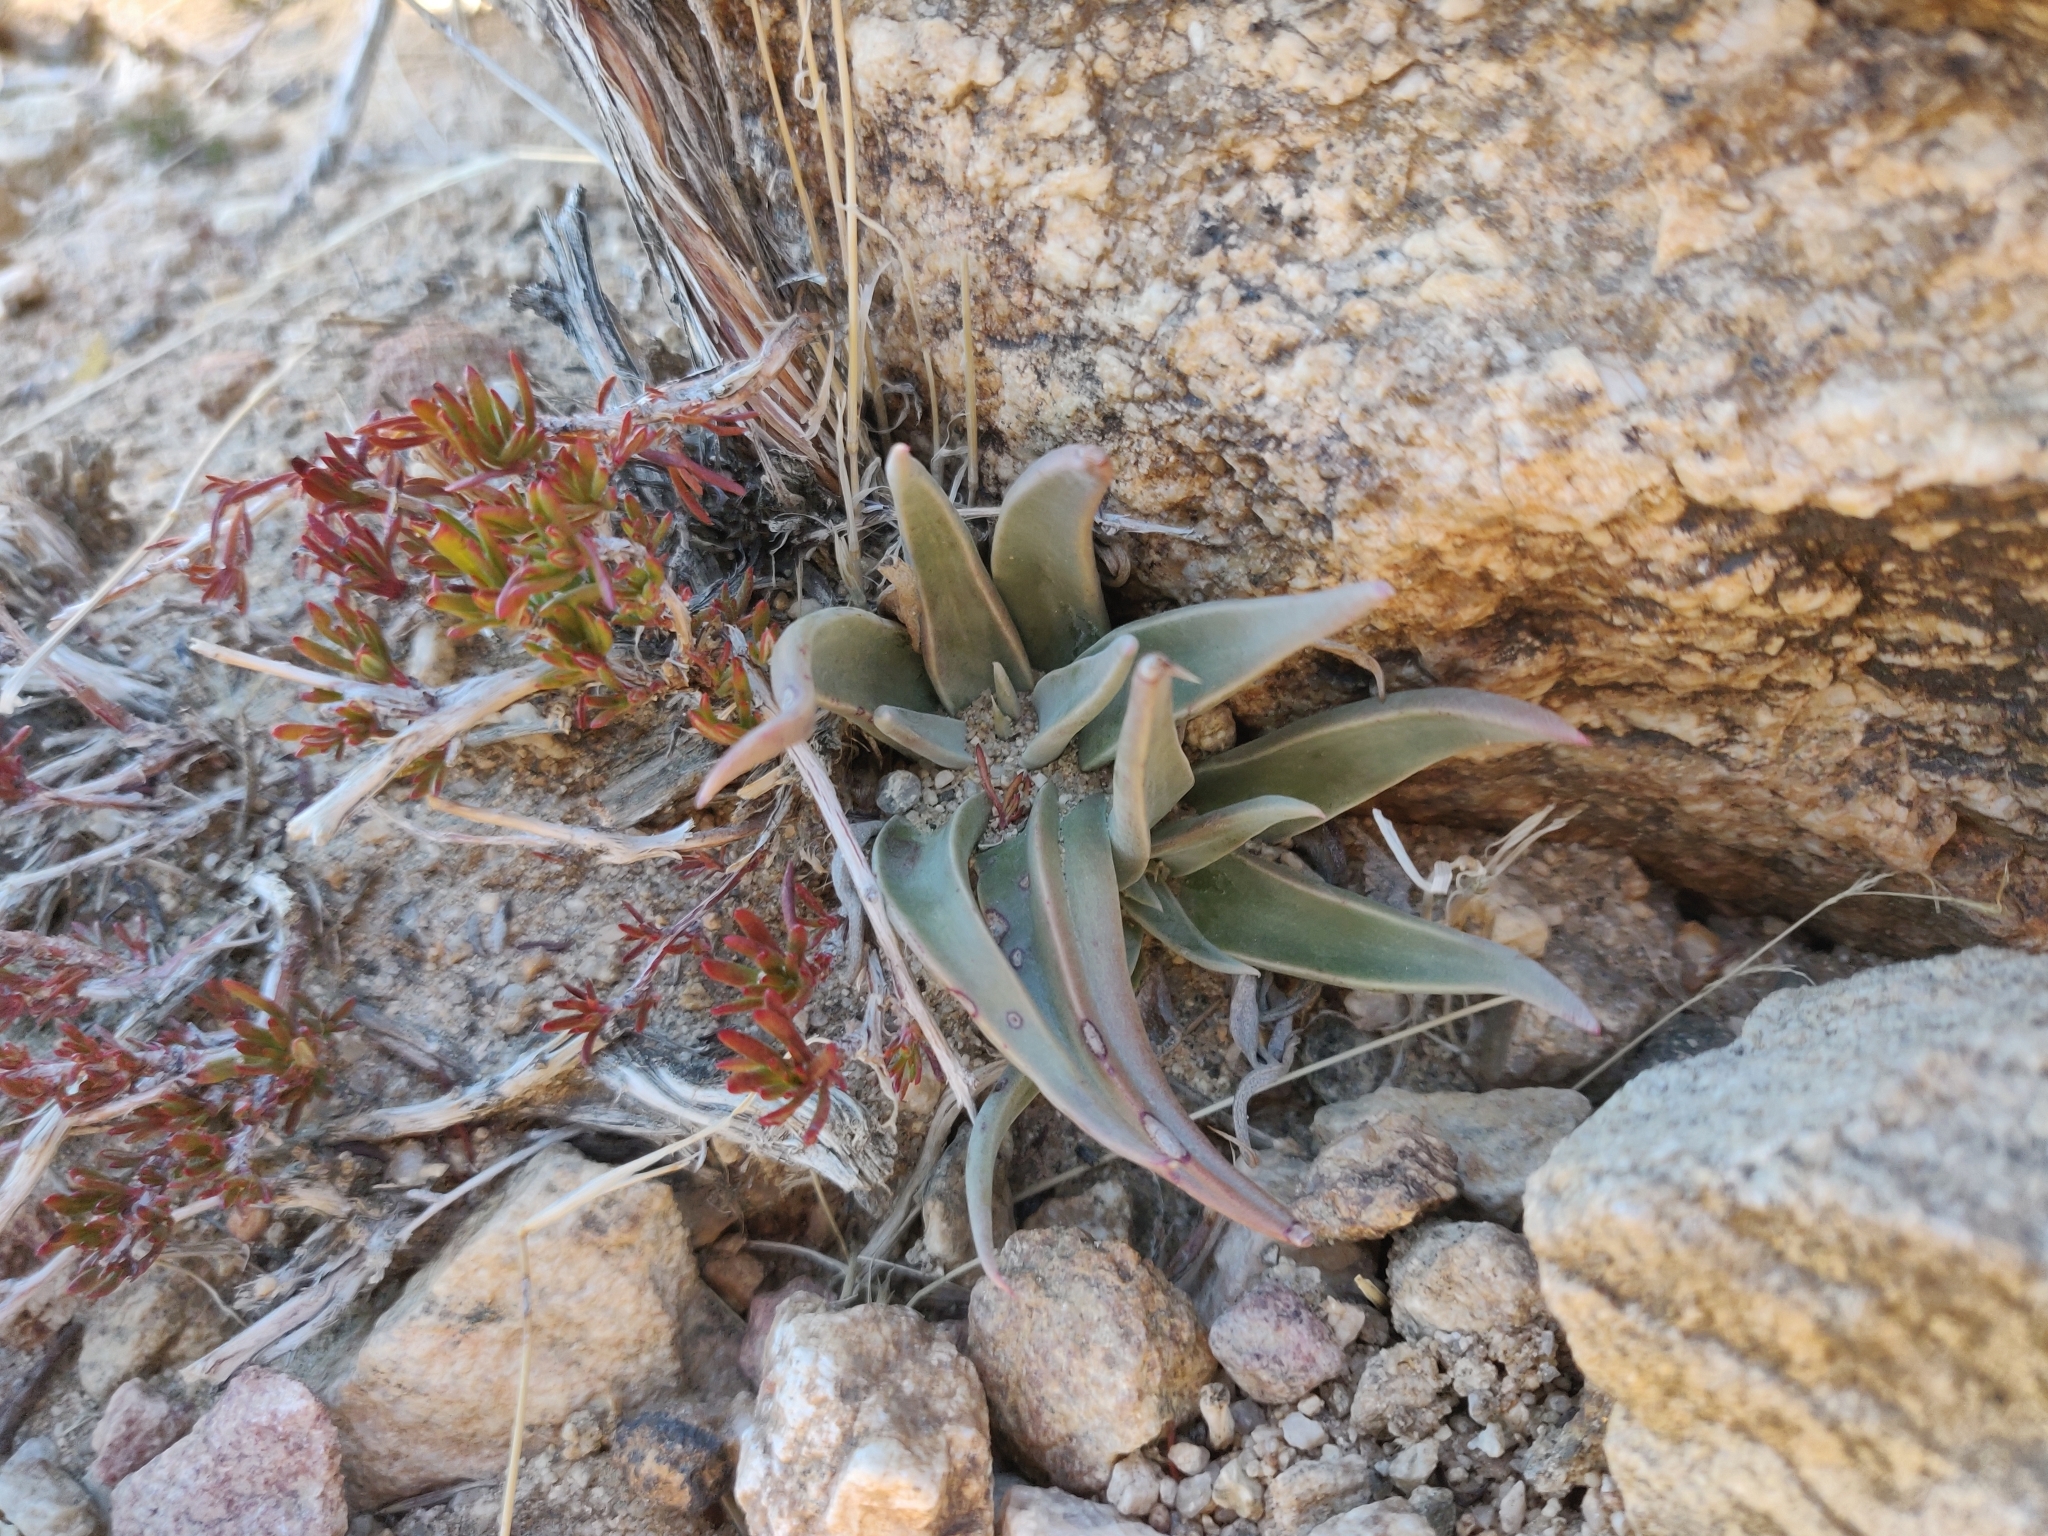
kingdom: Plantae
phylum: Tracheophyta
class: Magnoliopsida
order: Saxifragales
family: Crassulaceae
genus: Dudleya
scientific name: Dudleya saxosa
